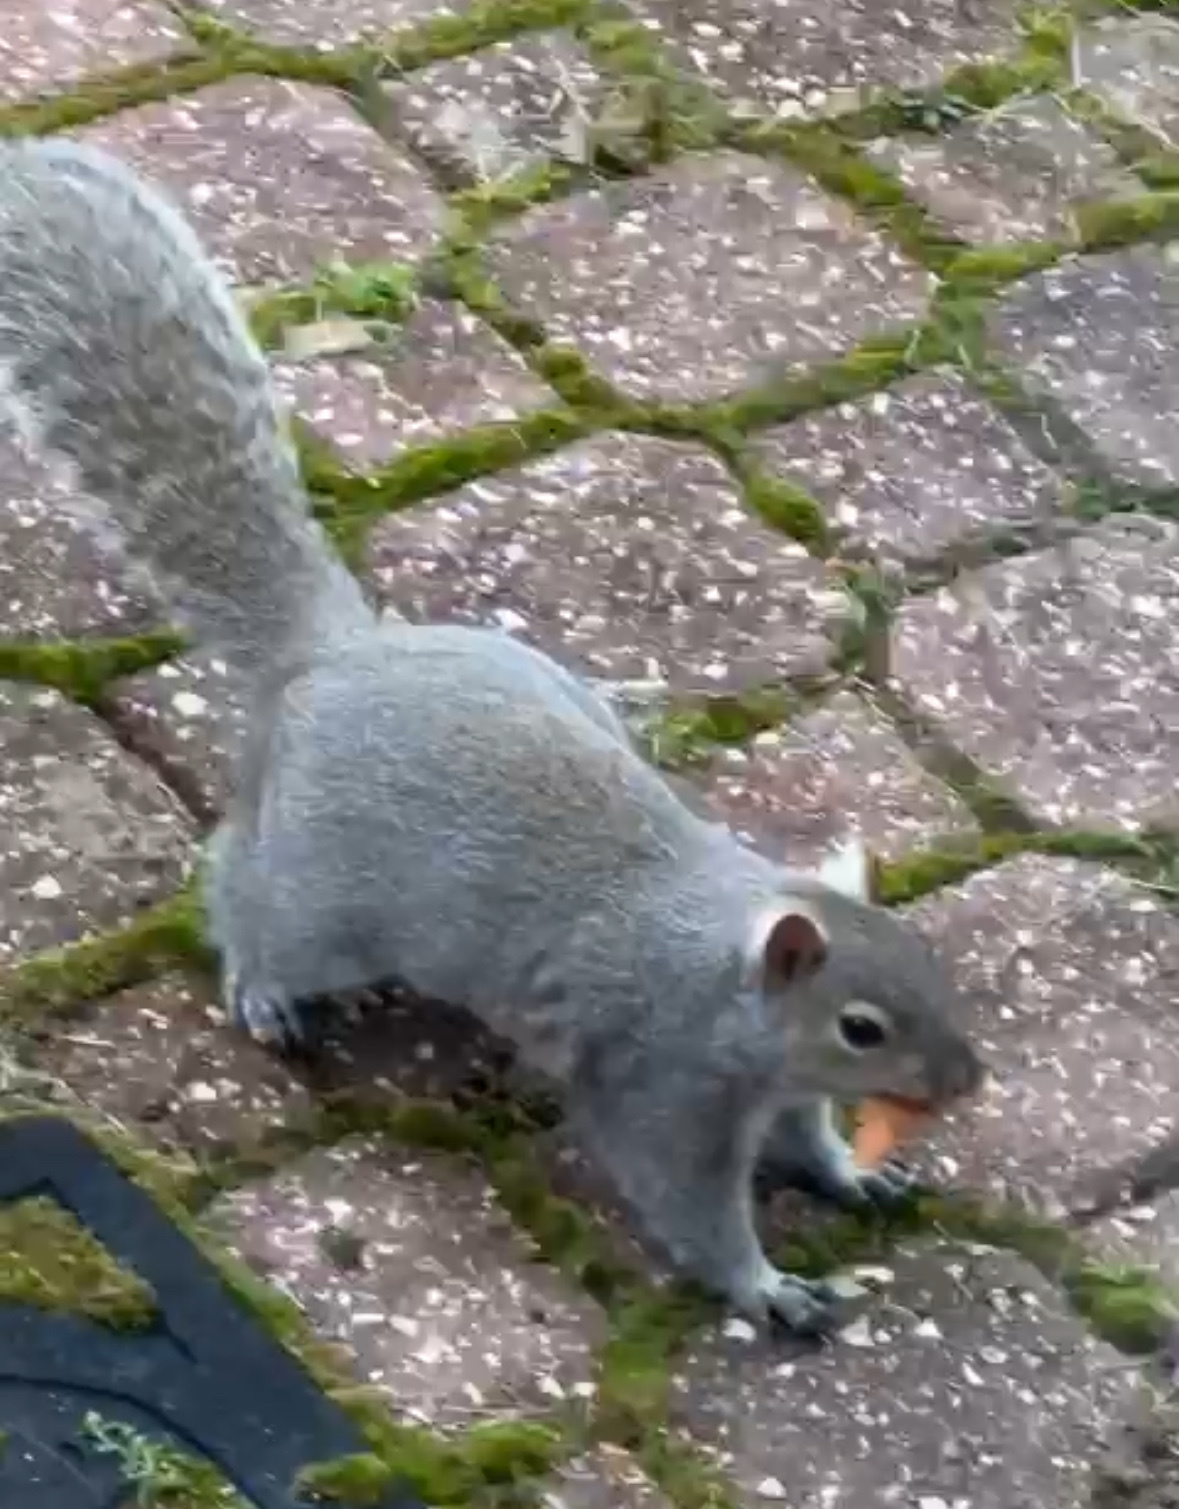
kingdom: Animalia
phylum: Chordata
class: Mammalia
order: Rodentia
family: Sciuridae
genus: Sciurus
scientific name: Sciurus carolinensis
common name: Eastern gray squirrel
